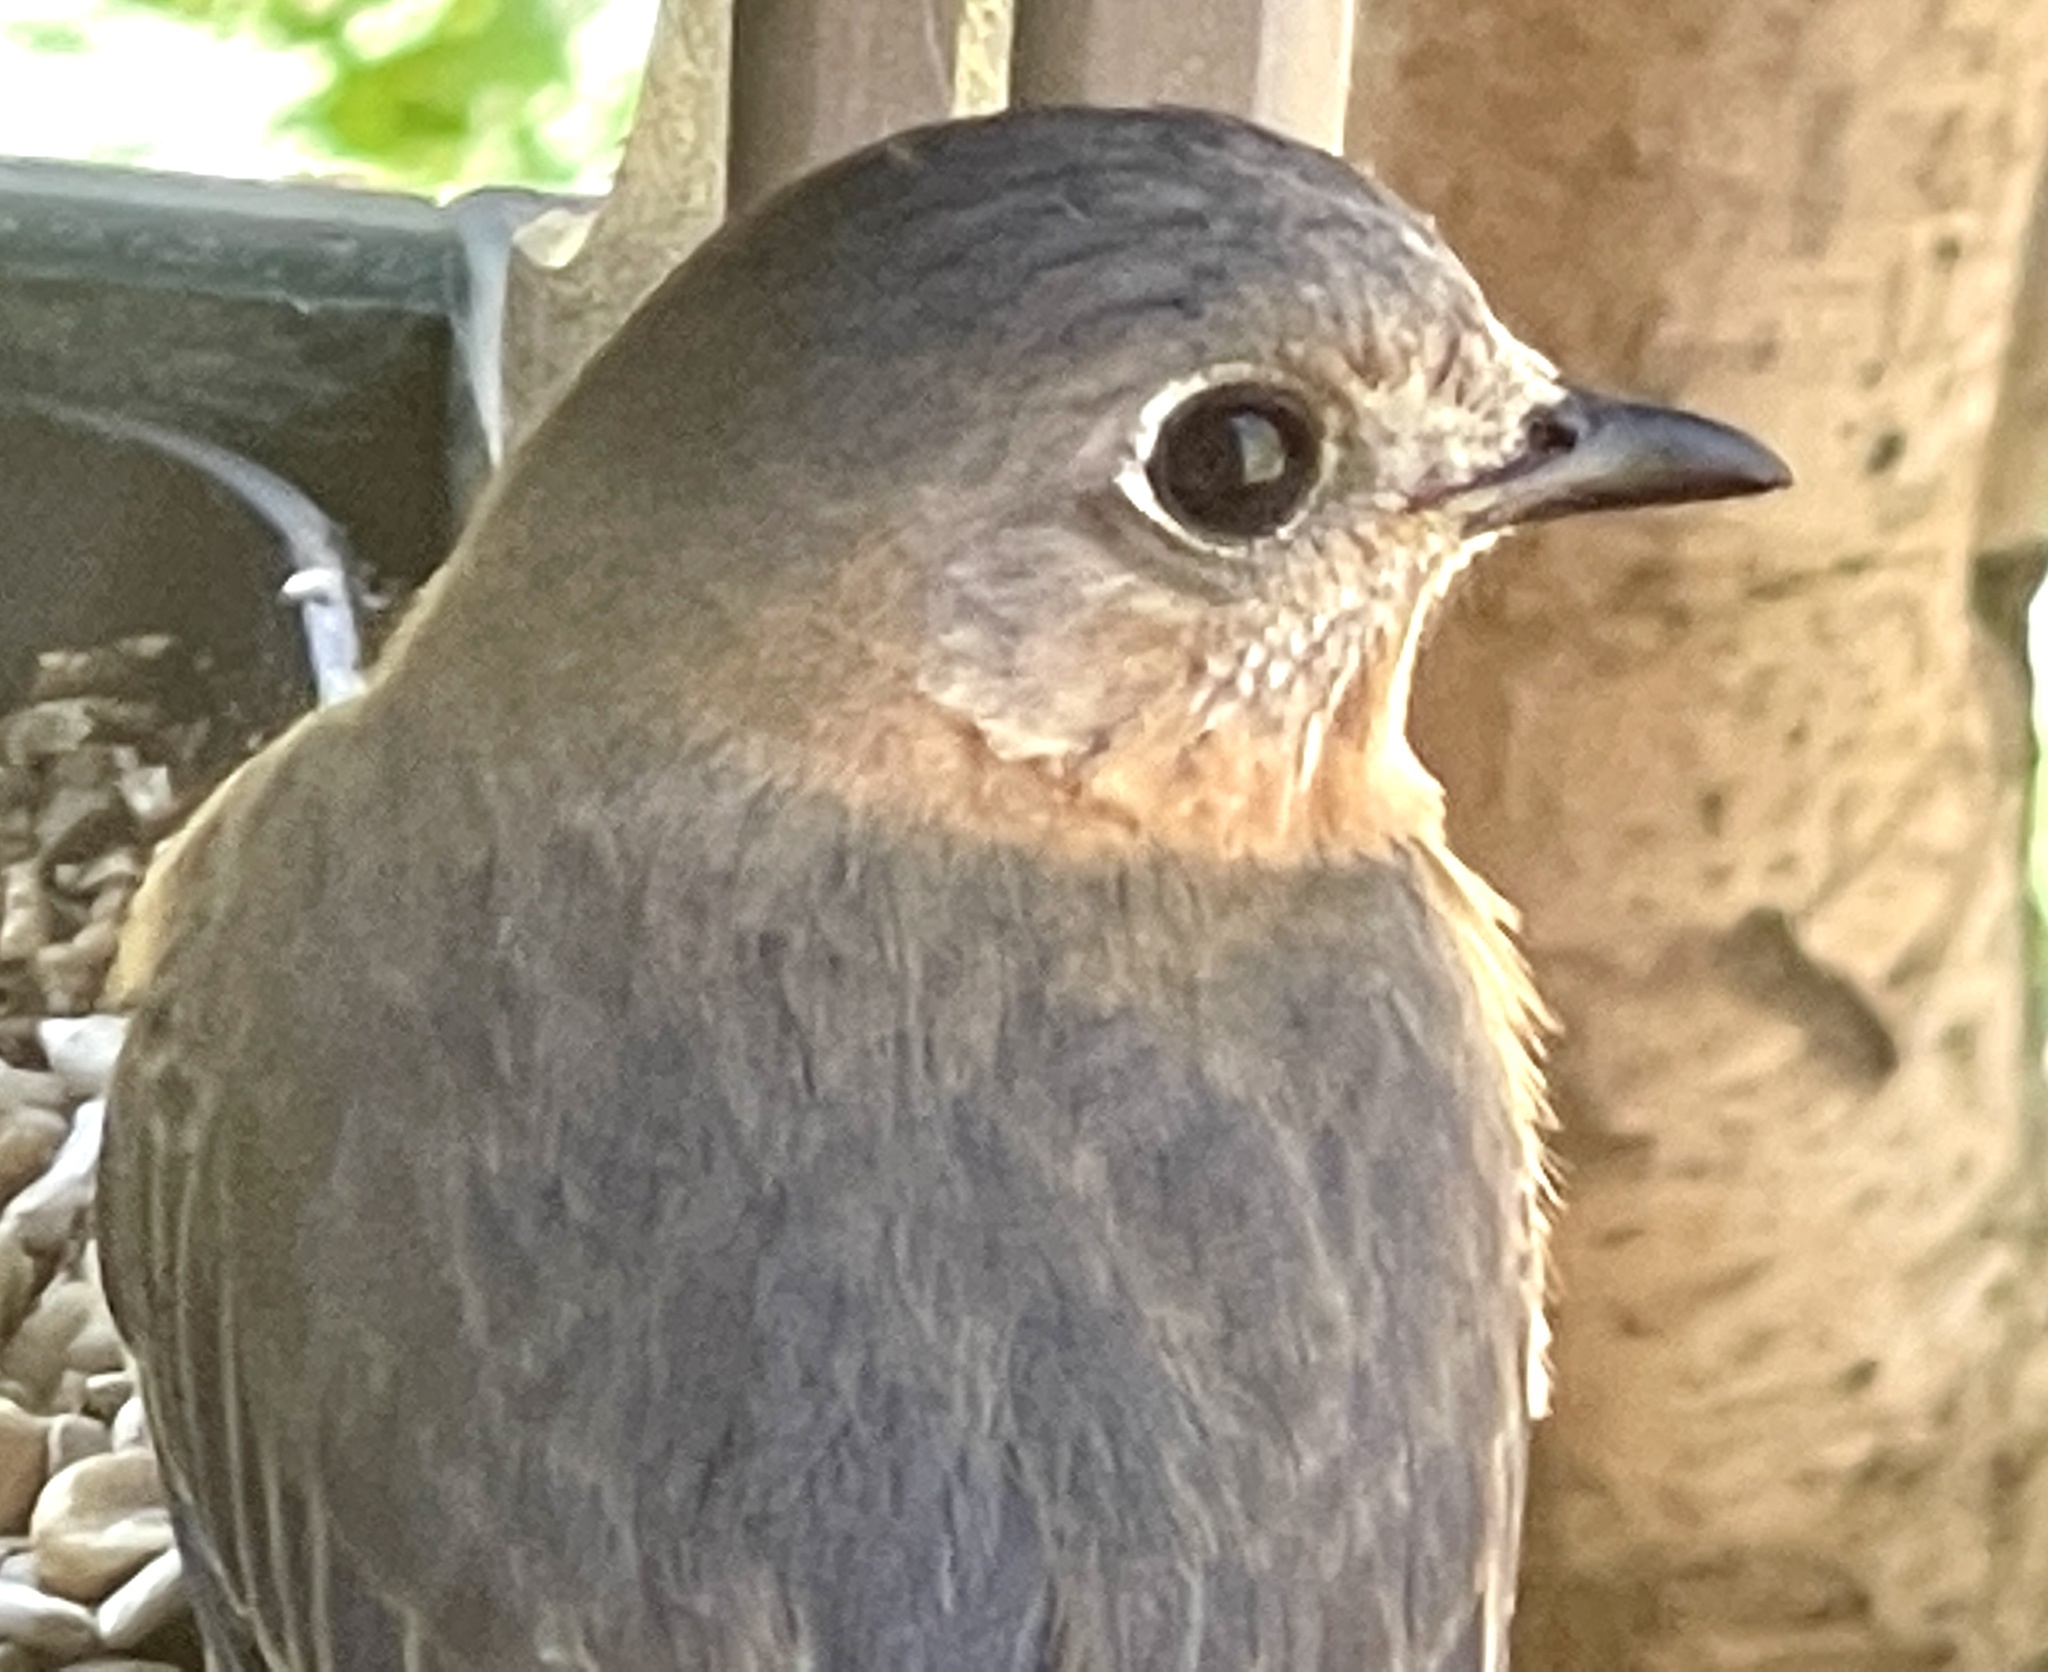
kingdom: Animalia
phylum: Chordata
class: Aves
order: Passeriformes
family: Turdidae
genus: Sialia
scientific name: Sialia sialis
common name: Eastern bluebird
